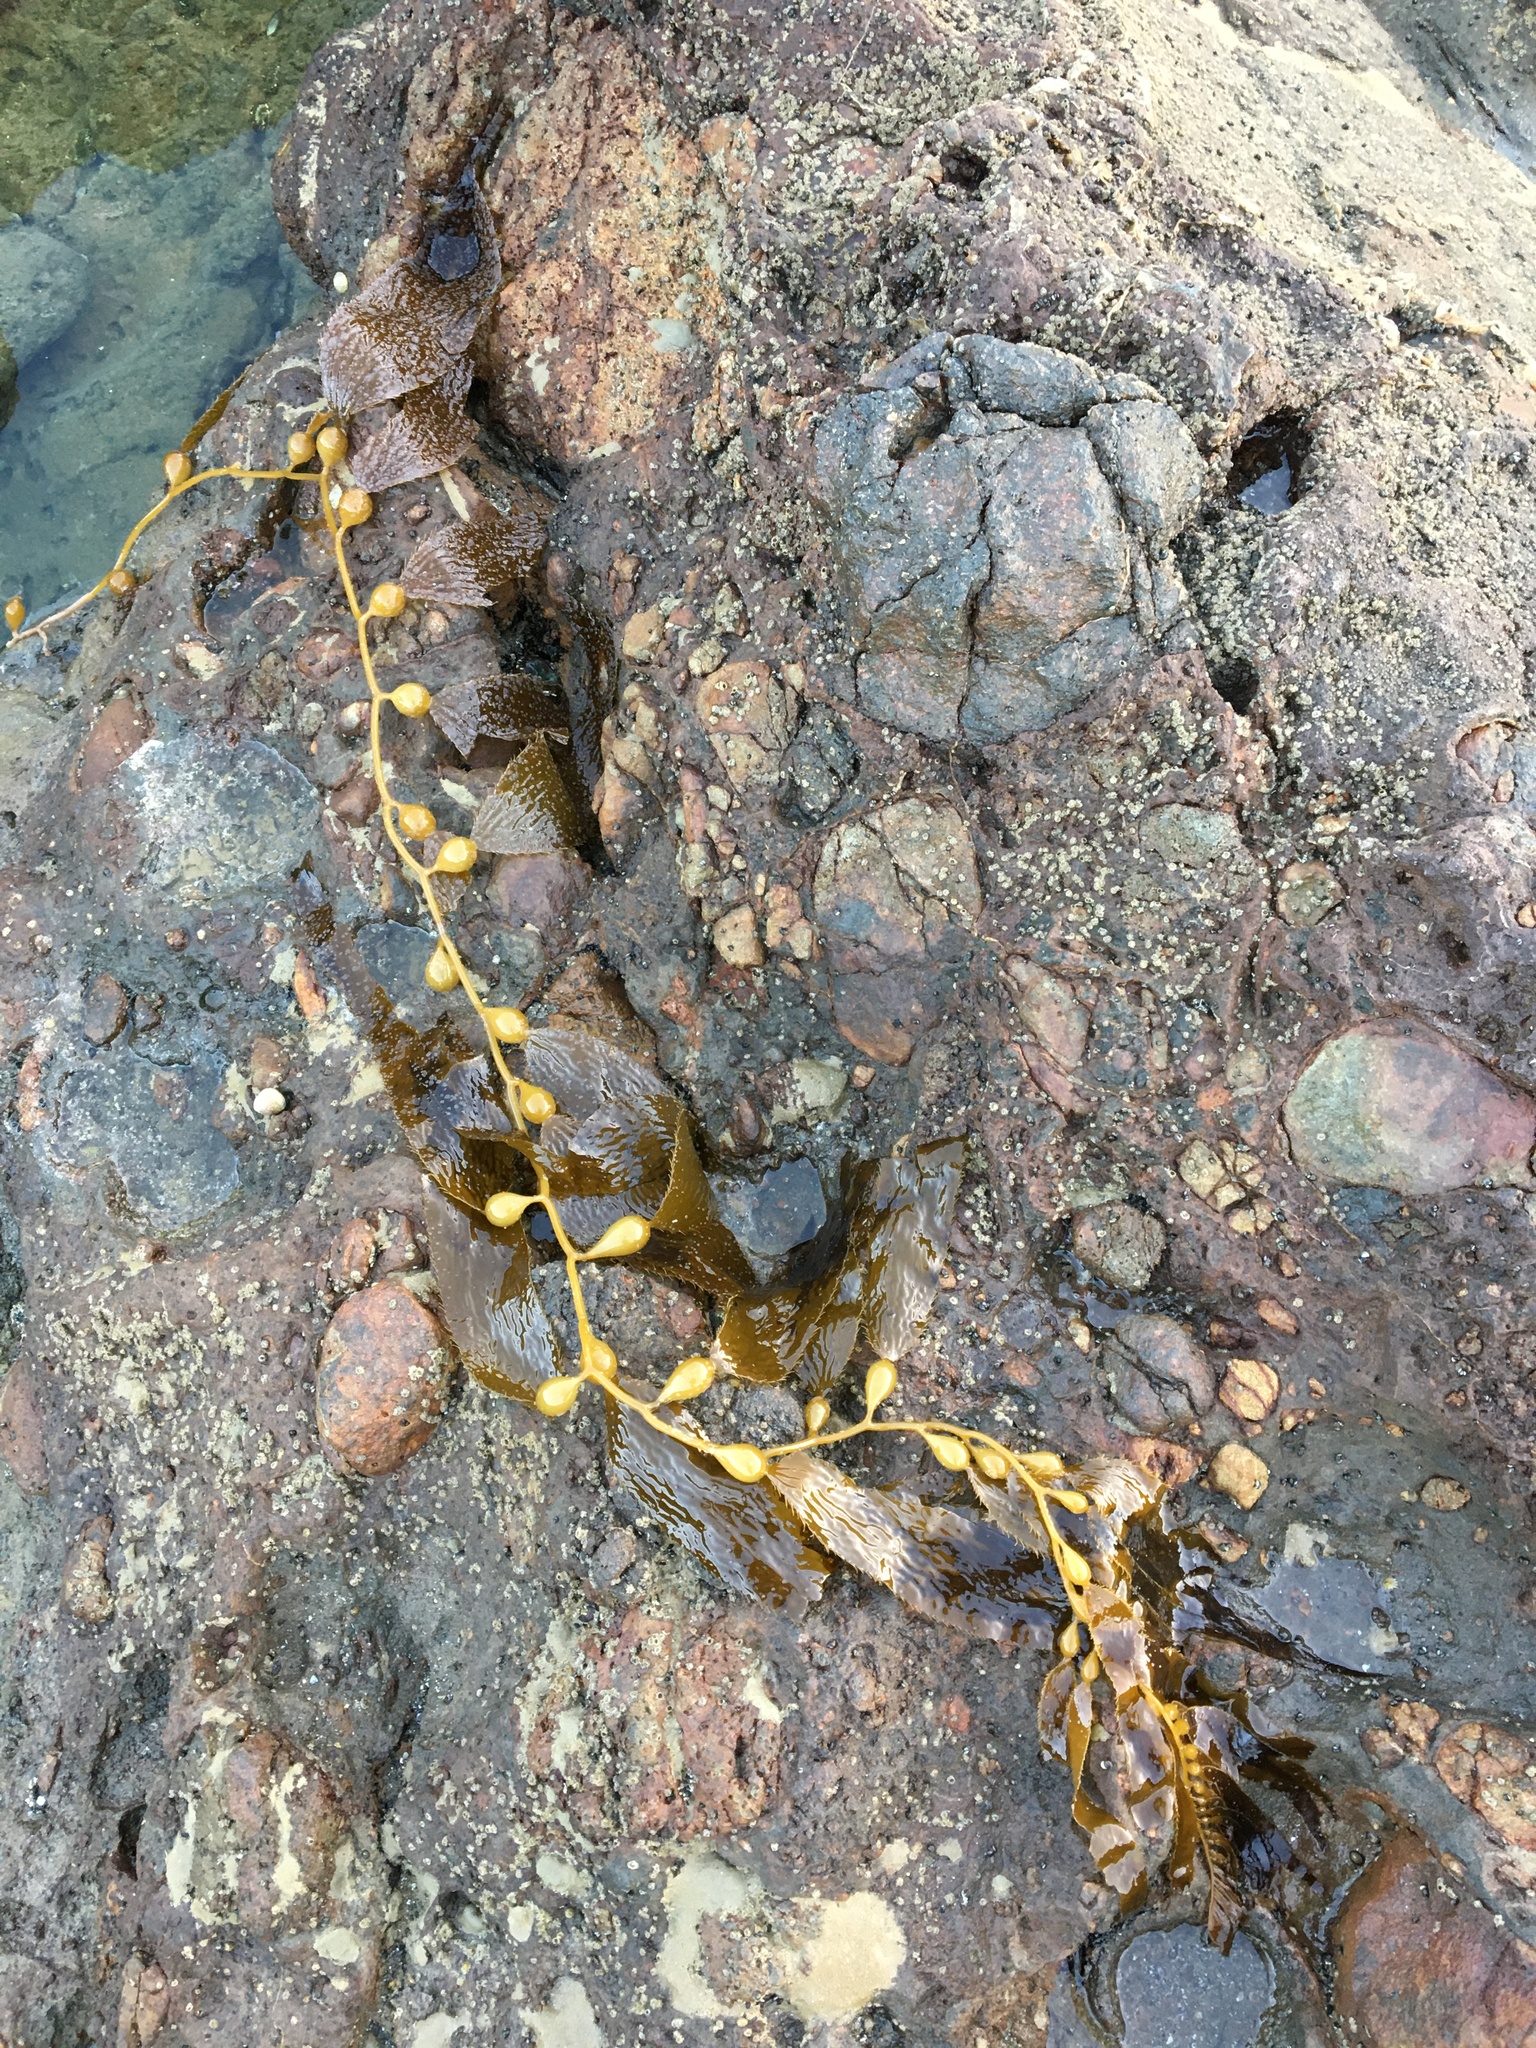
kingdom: Chromista
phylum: Ochrophyta
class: Phaeophyceae
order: Laminariales
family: Laminariaceae
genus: Macrocystis
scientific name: Macrocystis pyrifera
